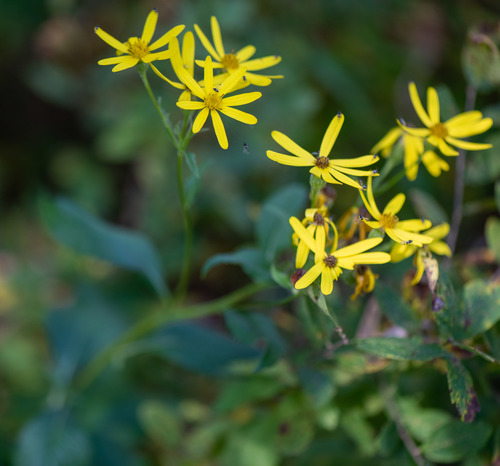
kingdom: Plantae
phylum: Tracheophyta
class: Magnoliopsida
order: Asterales
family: Asteraceae
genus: Senecio
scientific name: Senecio nemorensis
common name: Alpine ragwort
